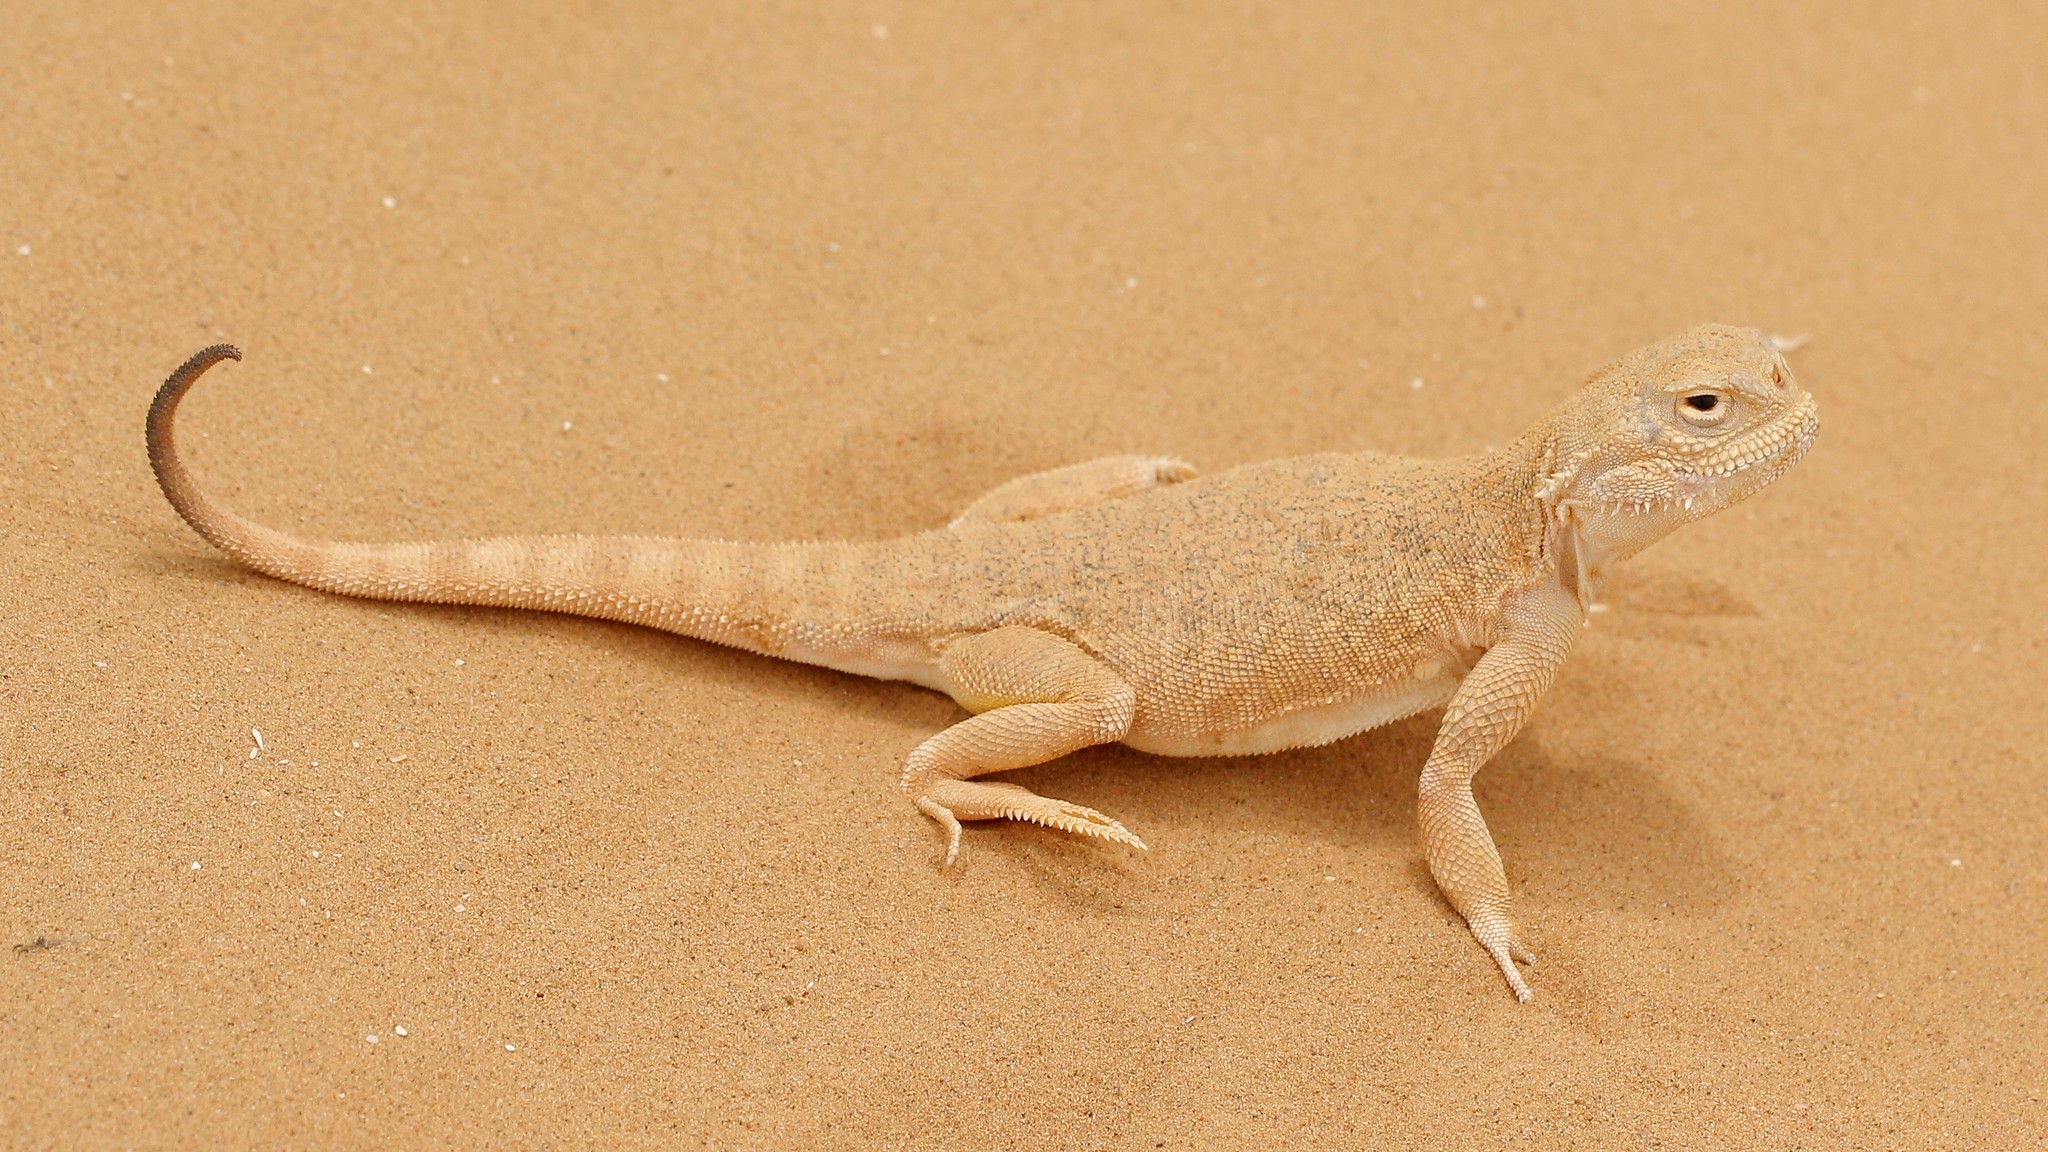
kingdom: Animalia
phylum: Chordata
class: Squamata
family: Agamidae
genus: Phrynocephalus
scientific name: Phrynocephalus mystaceus
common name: Secret toadhead agama
